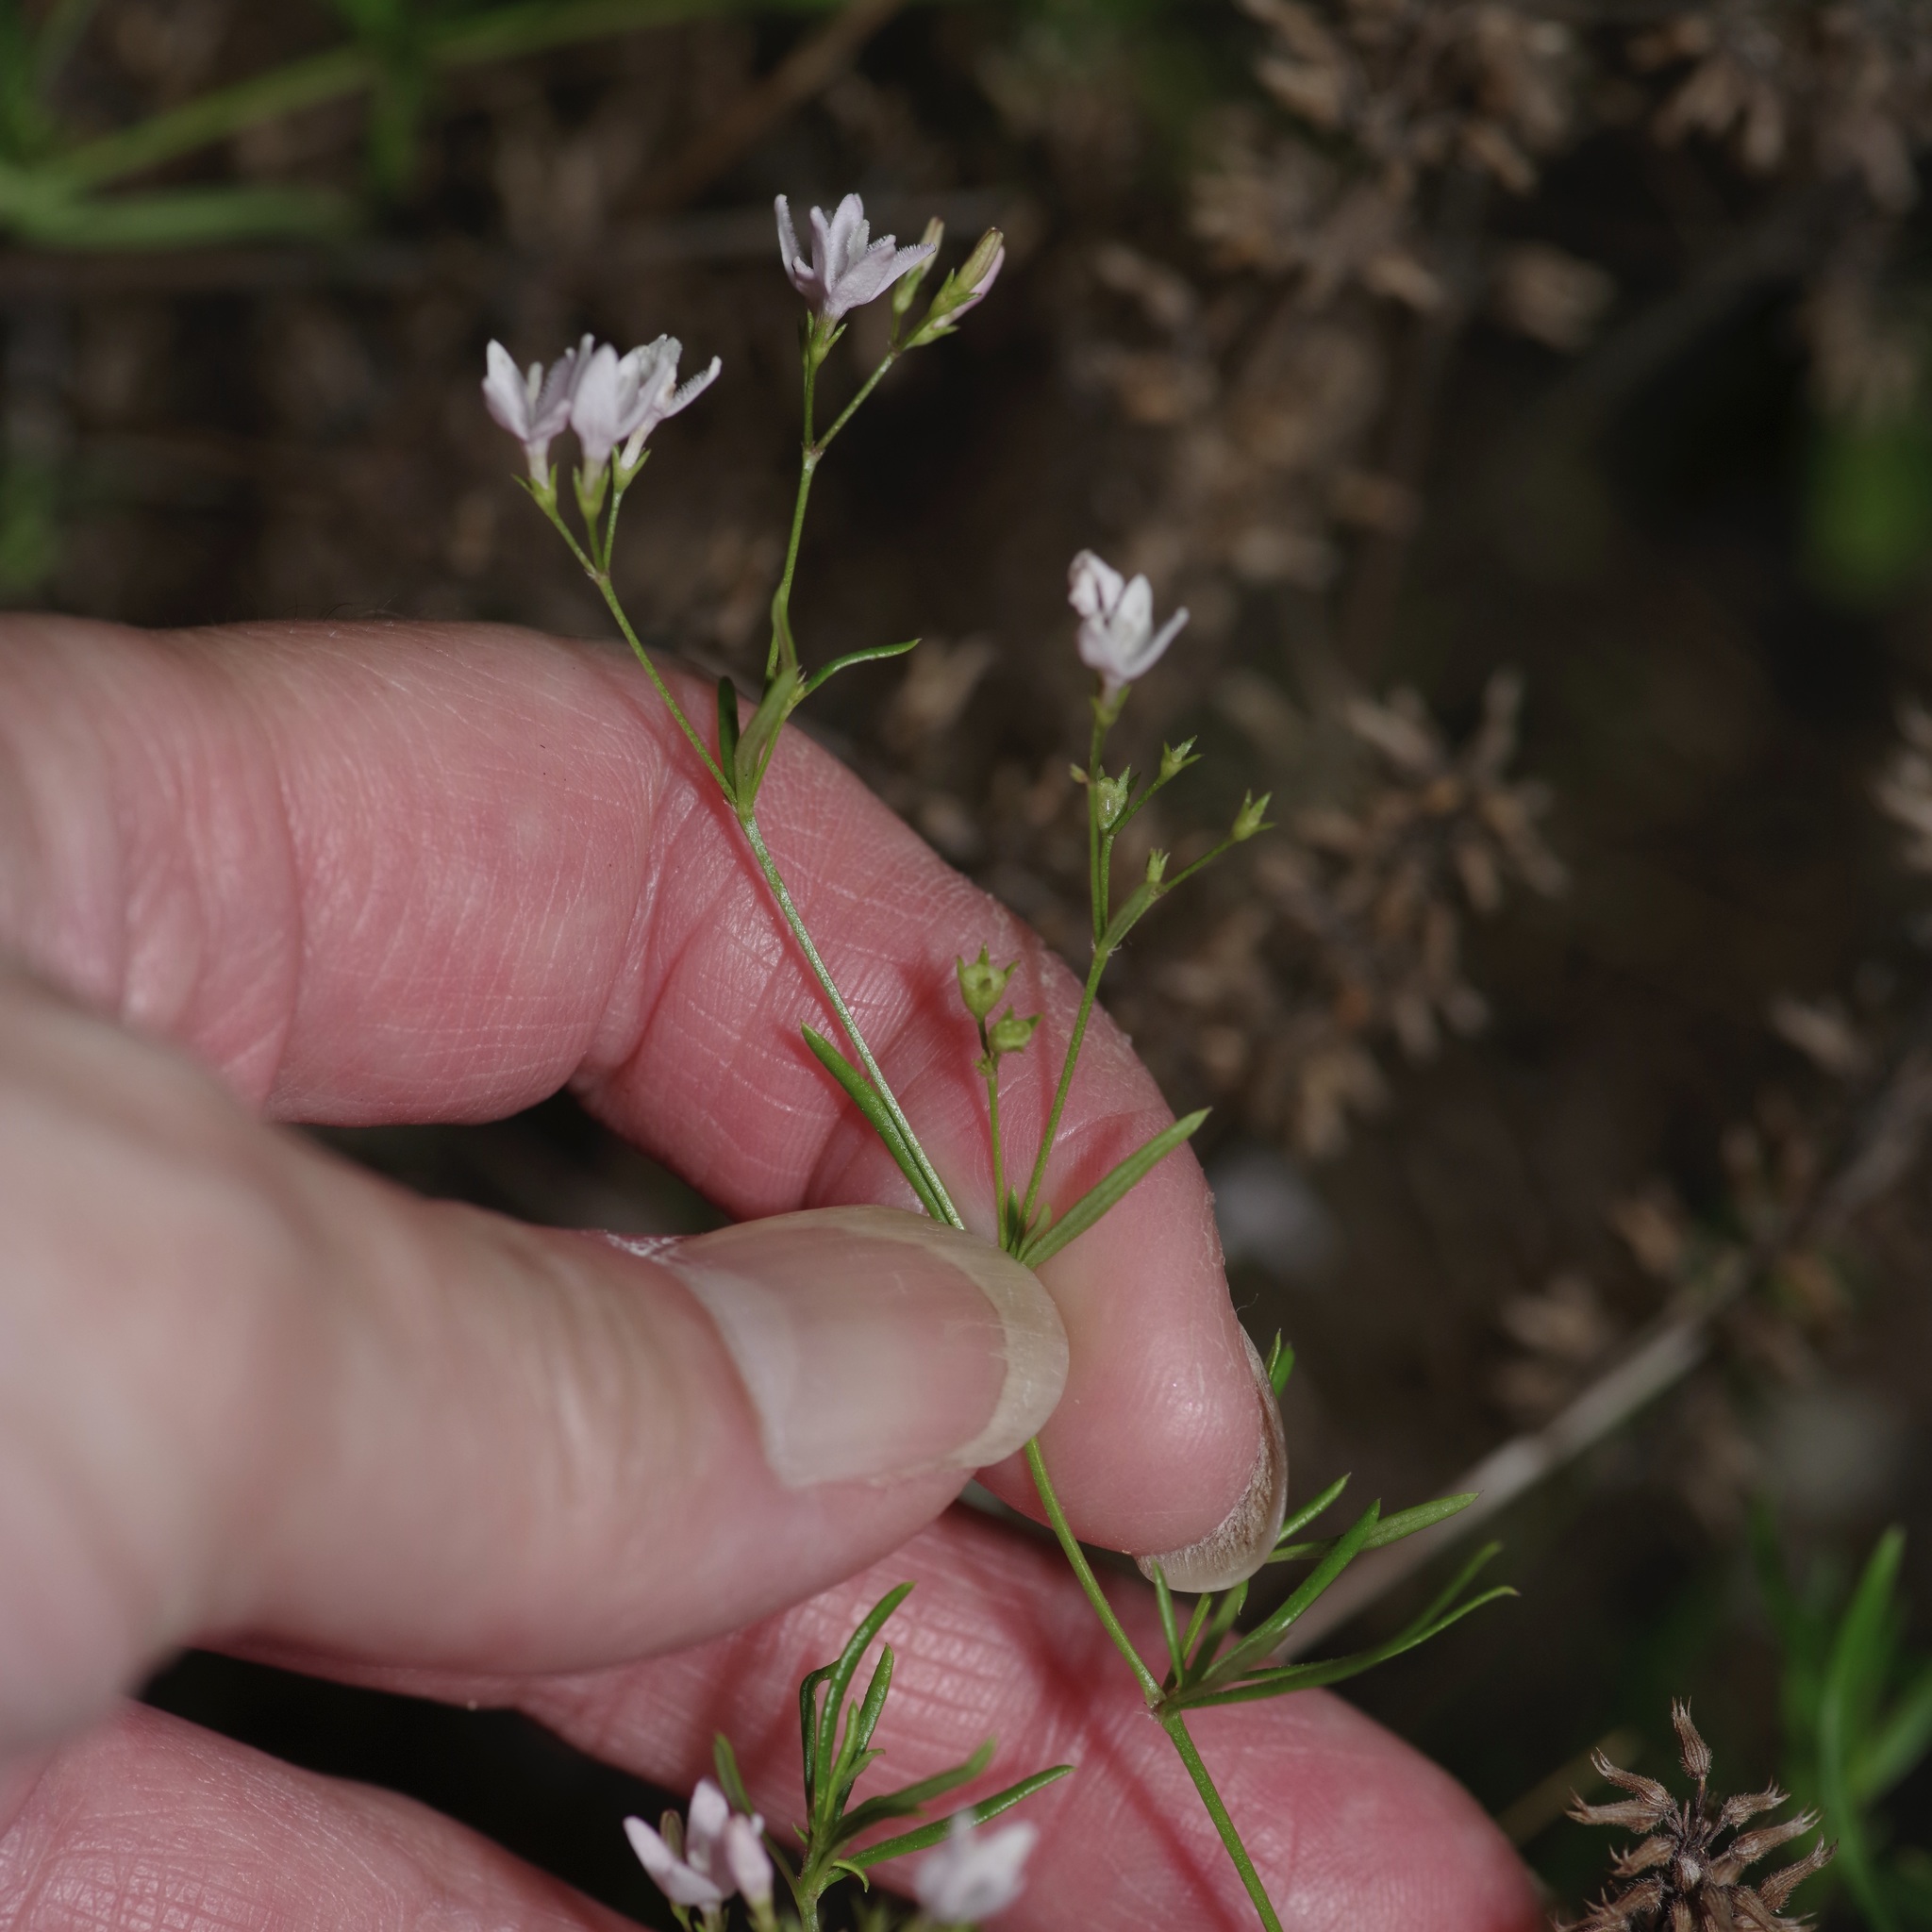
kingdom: Plantae
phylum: Tracheophyta
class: Magnoliopsida
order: Gentianales
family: Rubiaceae
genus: Stenaria
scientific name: Stenaria nigricans
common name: Diamondflowers
